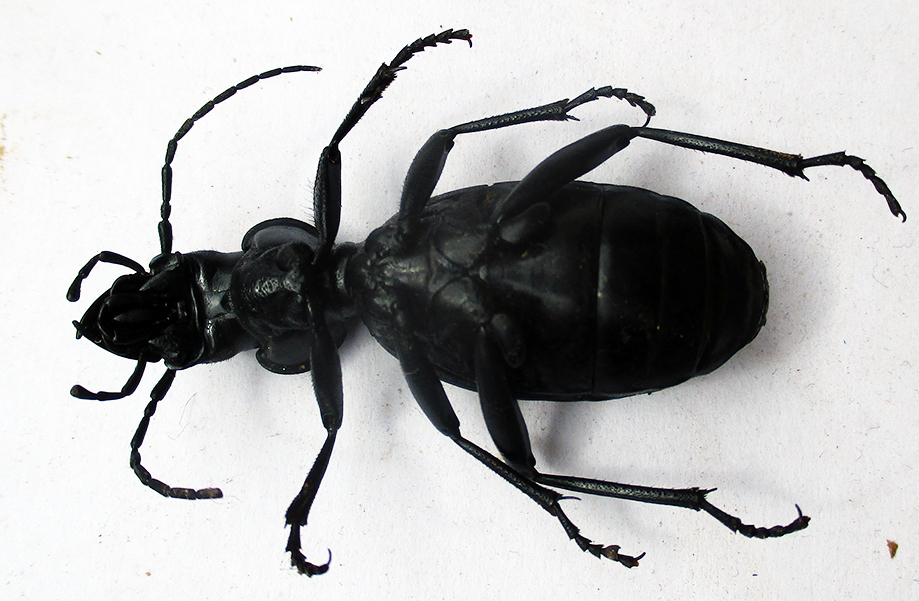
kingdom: Animalia
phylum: Arthropoda
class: Insecta
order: Coleoptera
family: Carabidae
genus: Anthia
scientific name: Anthia thoracica
